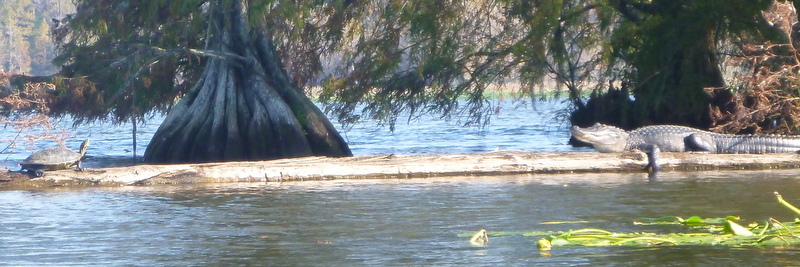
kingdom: Animalia
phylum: Chordata
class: Crocodylia
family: Alligatoridae
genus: Alligator
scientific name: Alligator mississippiensis
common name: American alligator
